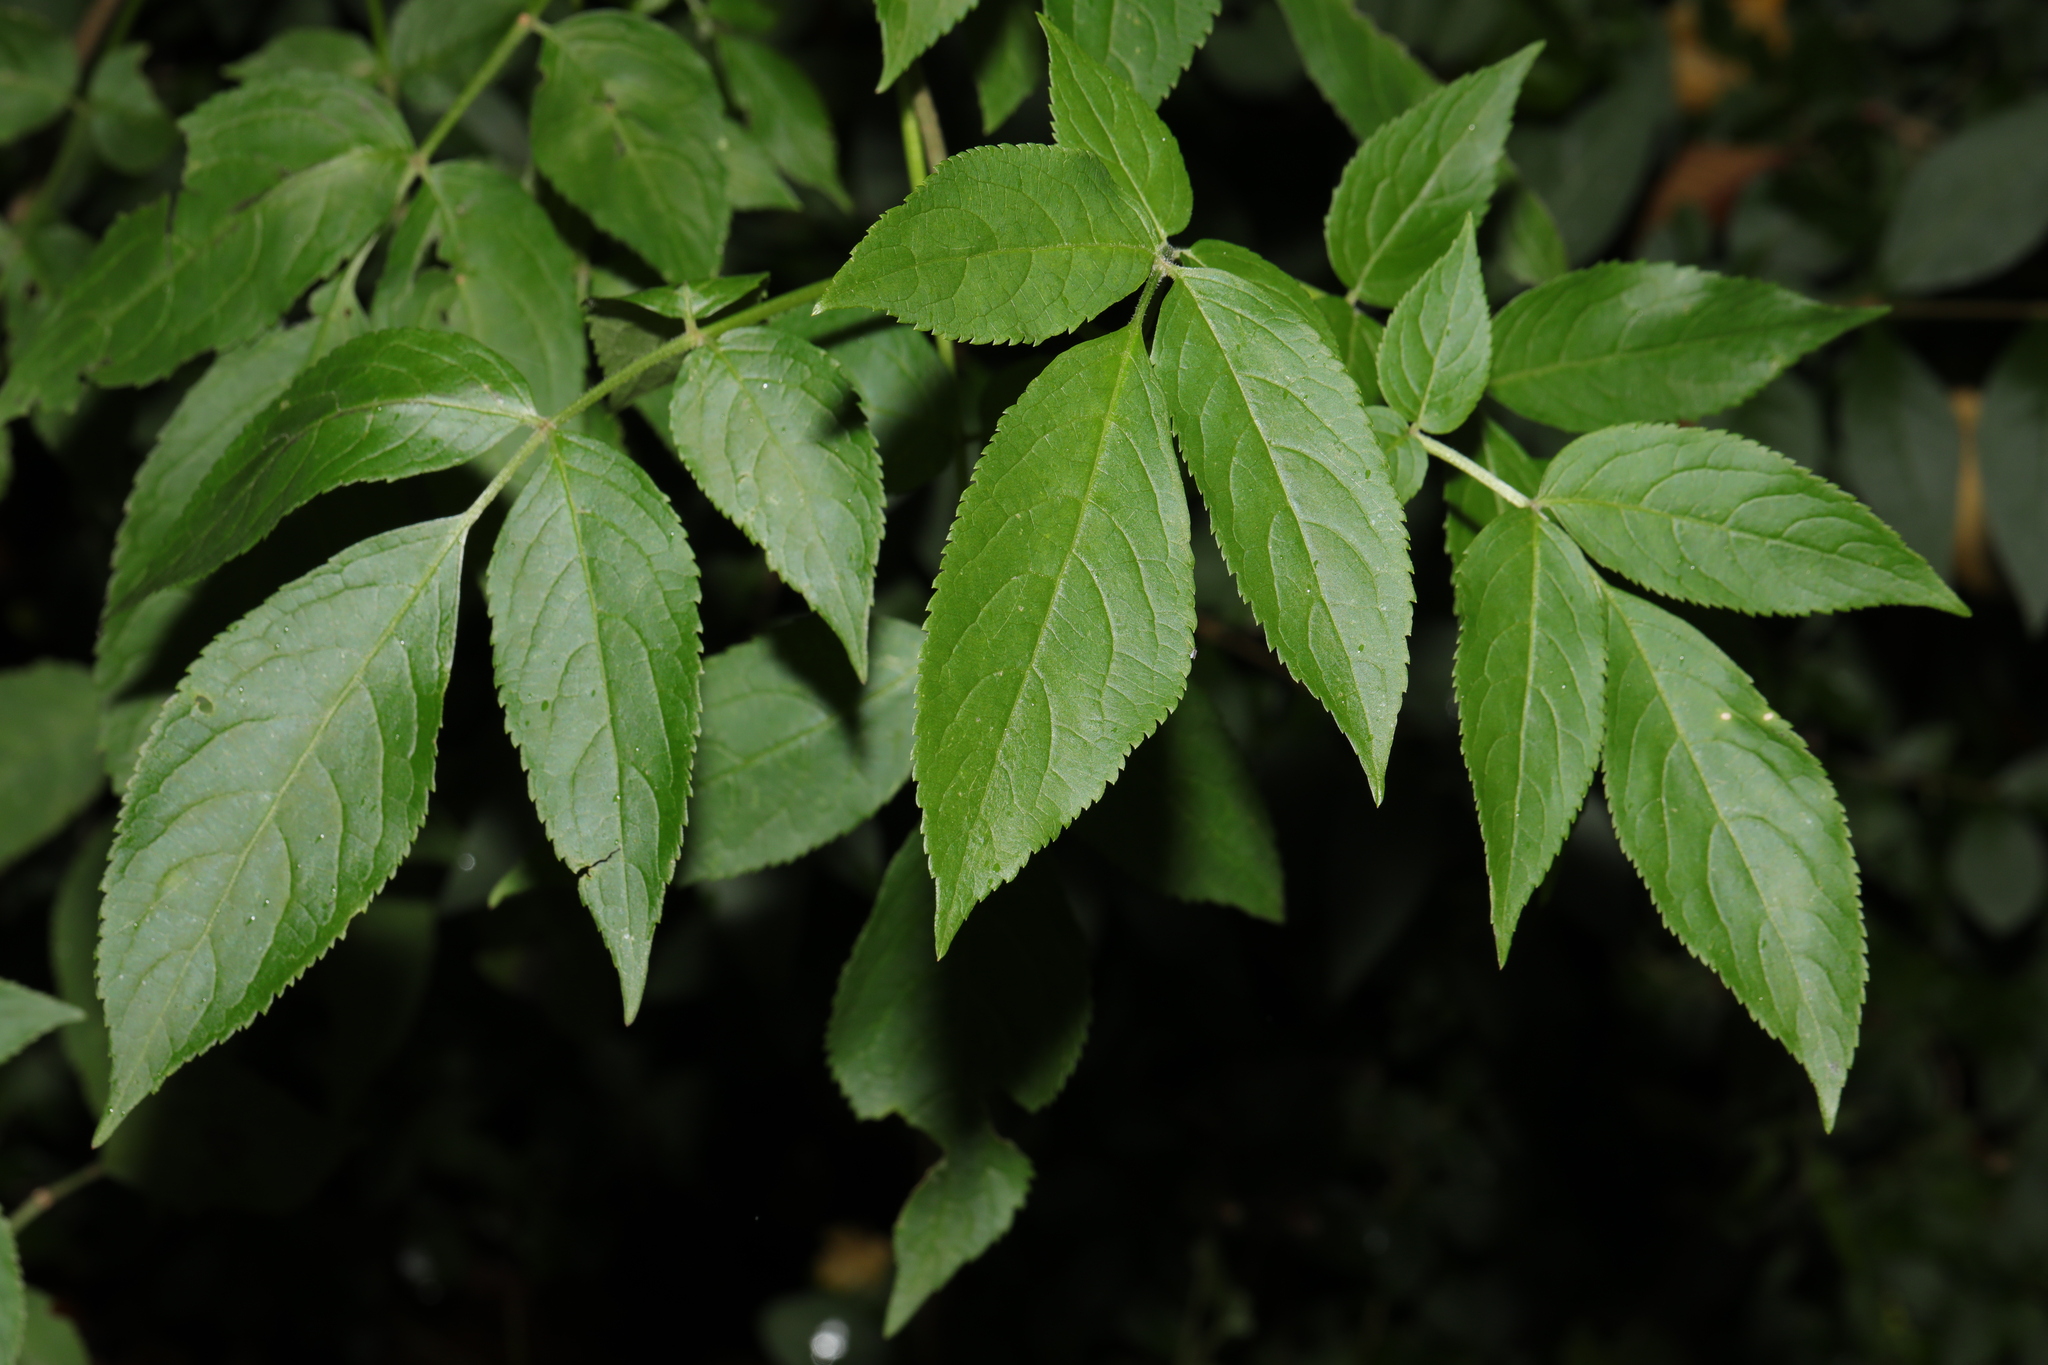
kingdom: Plantae
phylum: Tracheophyta
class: Magnoliopsida
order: Dipsacales
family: Viburnaceae
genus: Sambucus
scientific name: Sambucus nigra
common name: Elder
